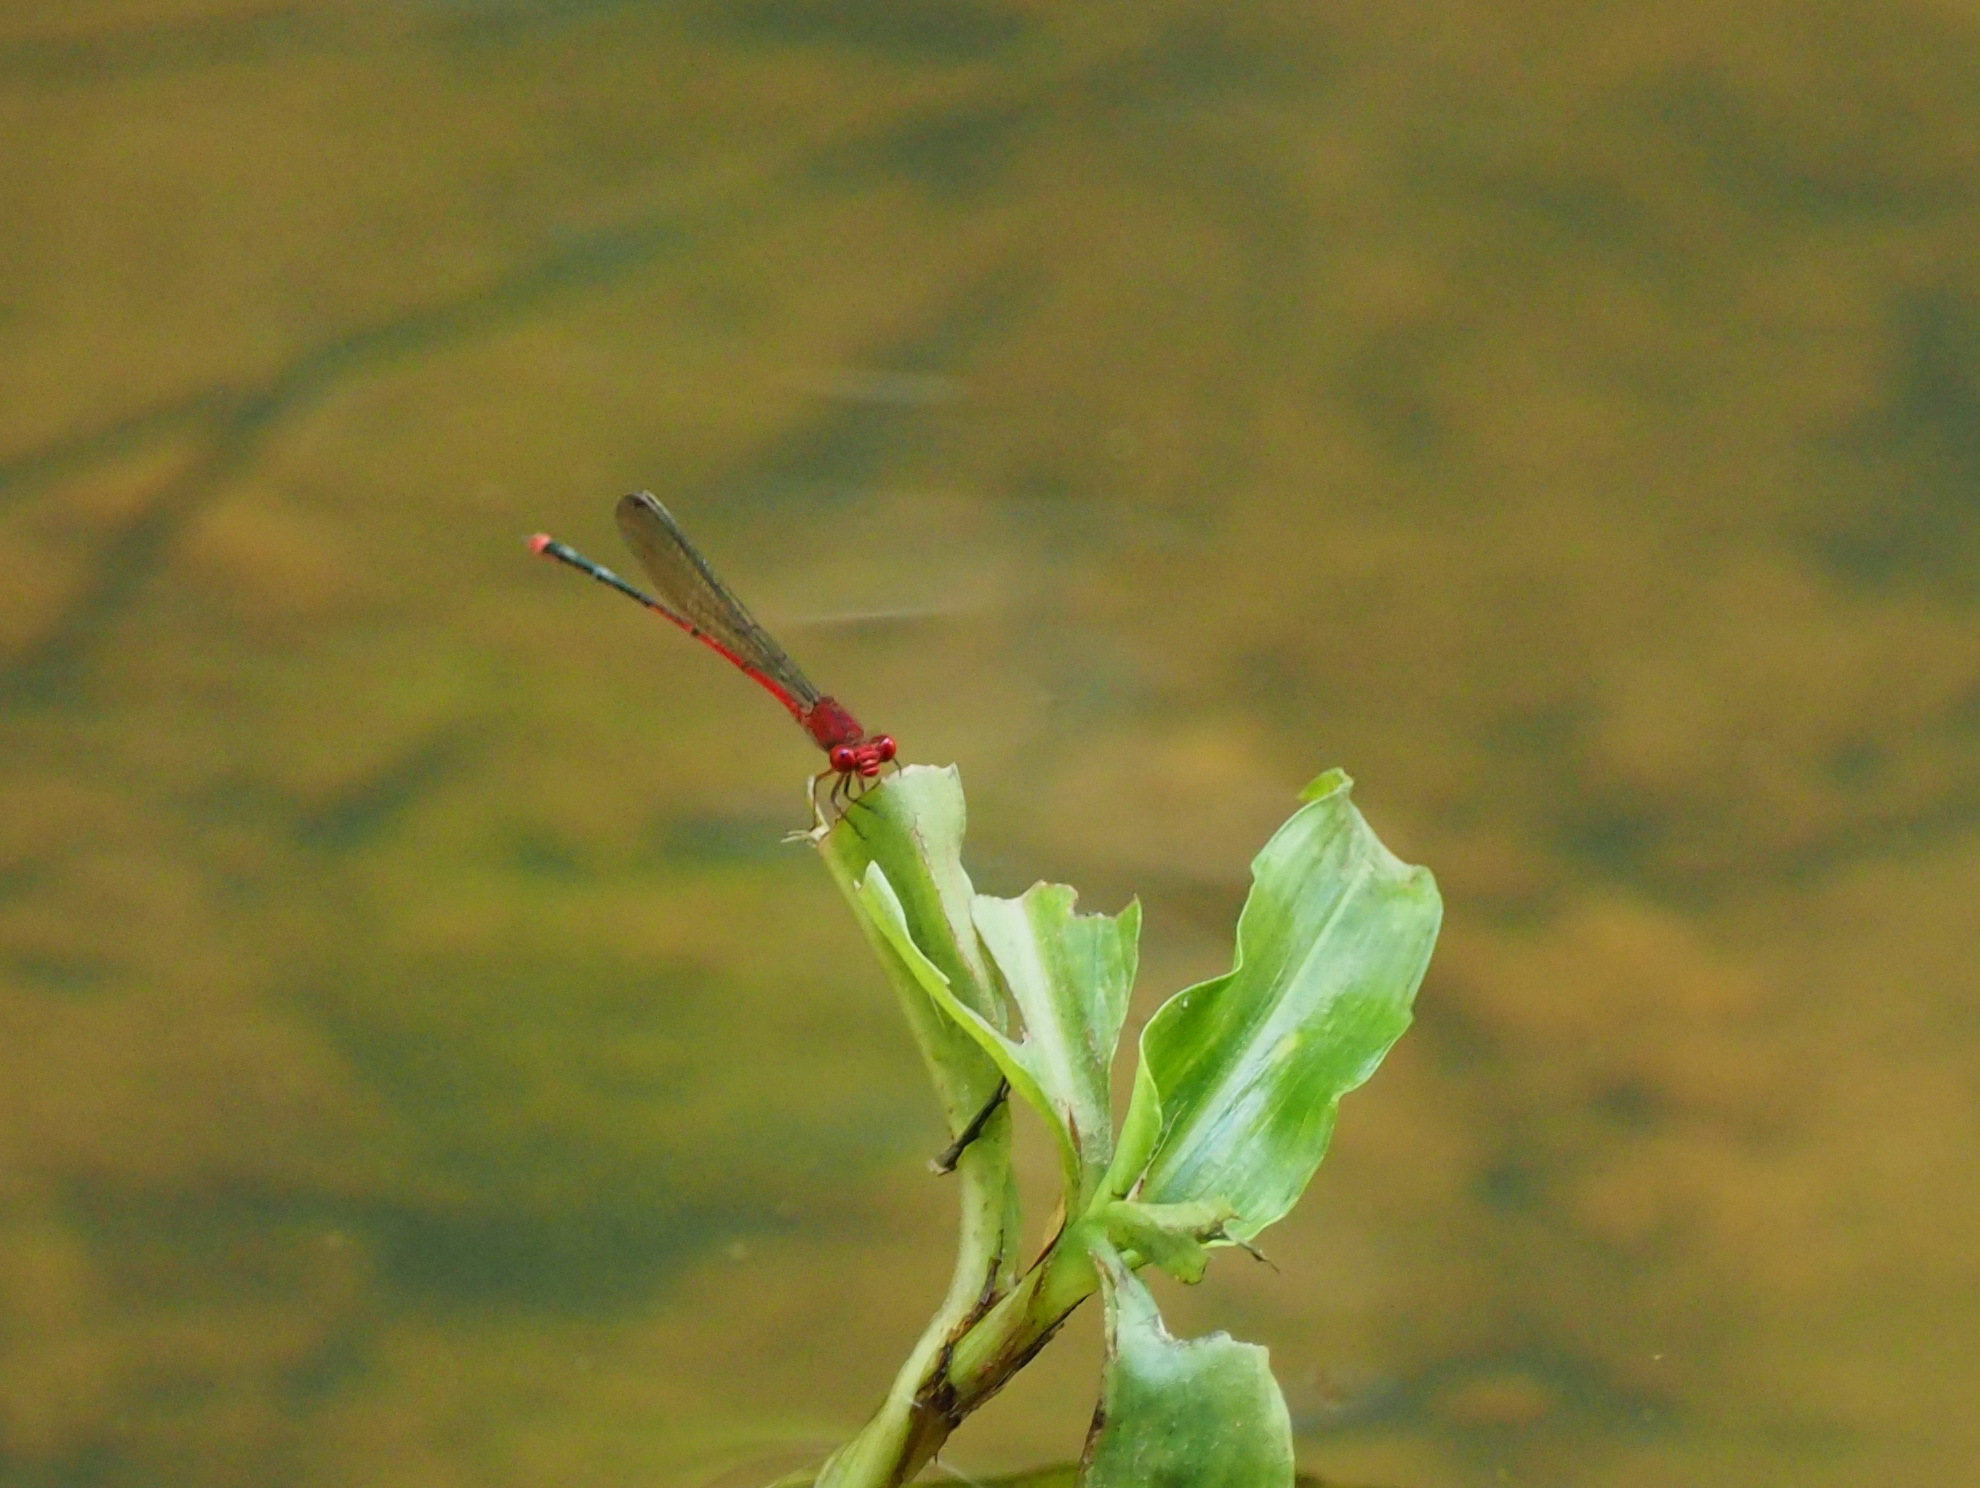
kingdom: Animalia
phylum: Arthropoda
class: Insecta
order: Odonata
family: Coenagrionidae
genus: Pseudagrion
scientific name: Pseudagrion pilidorsum
